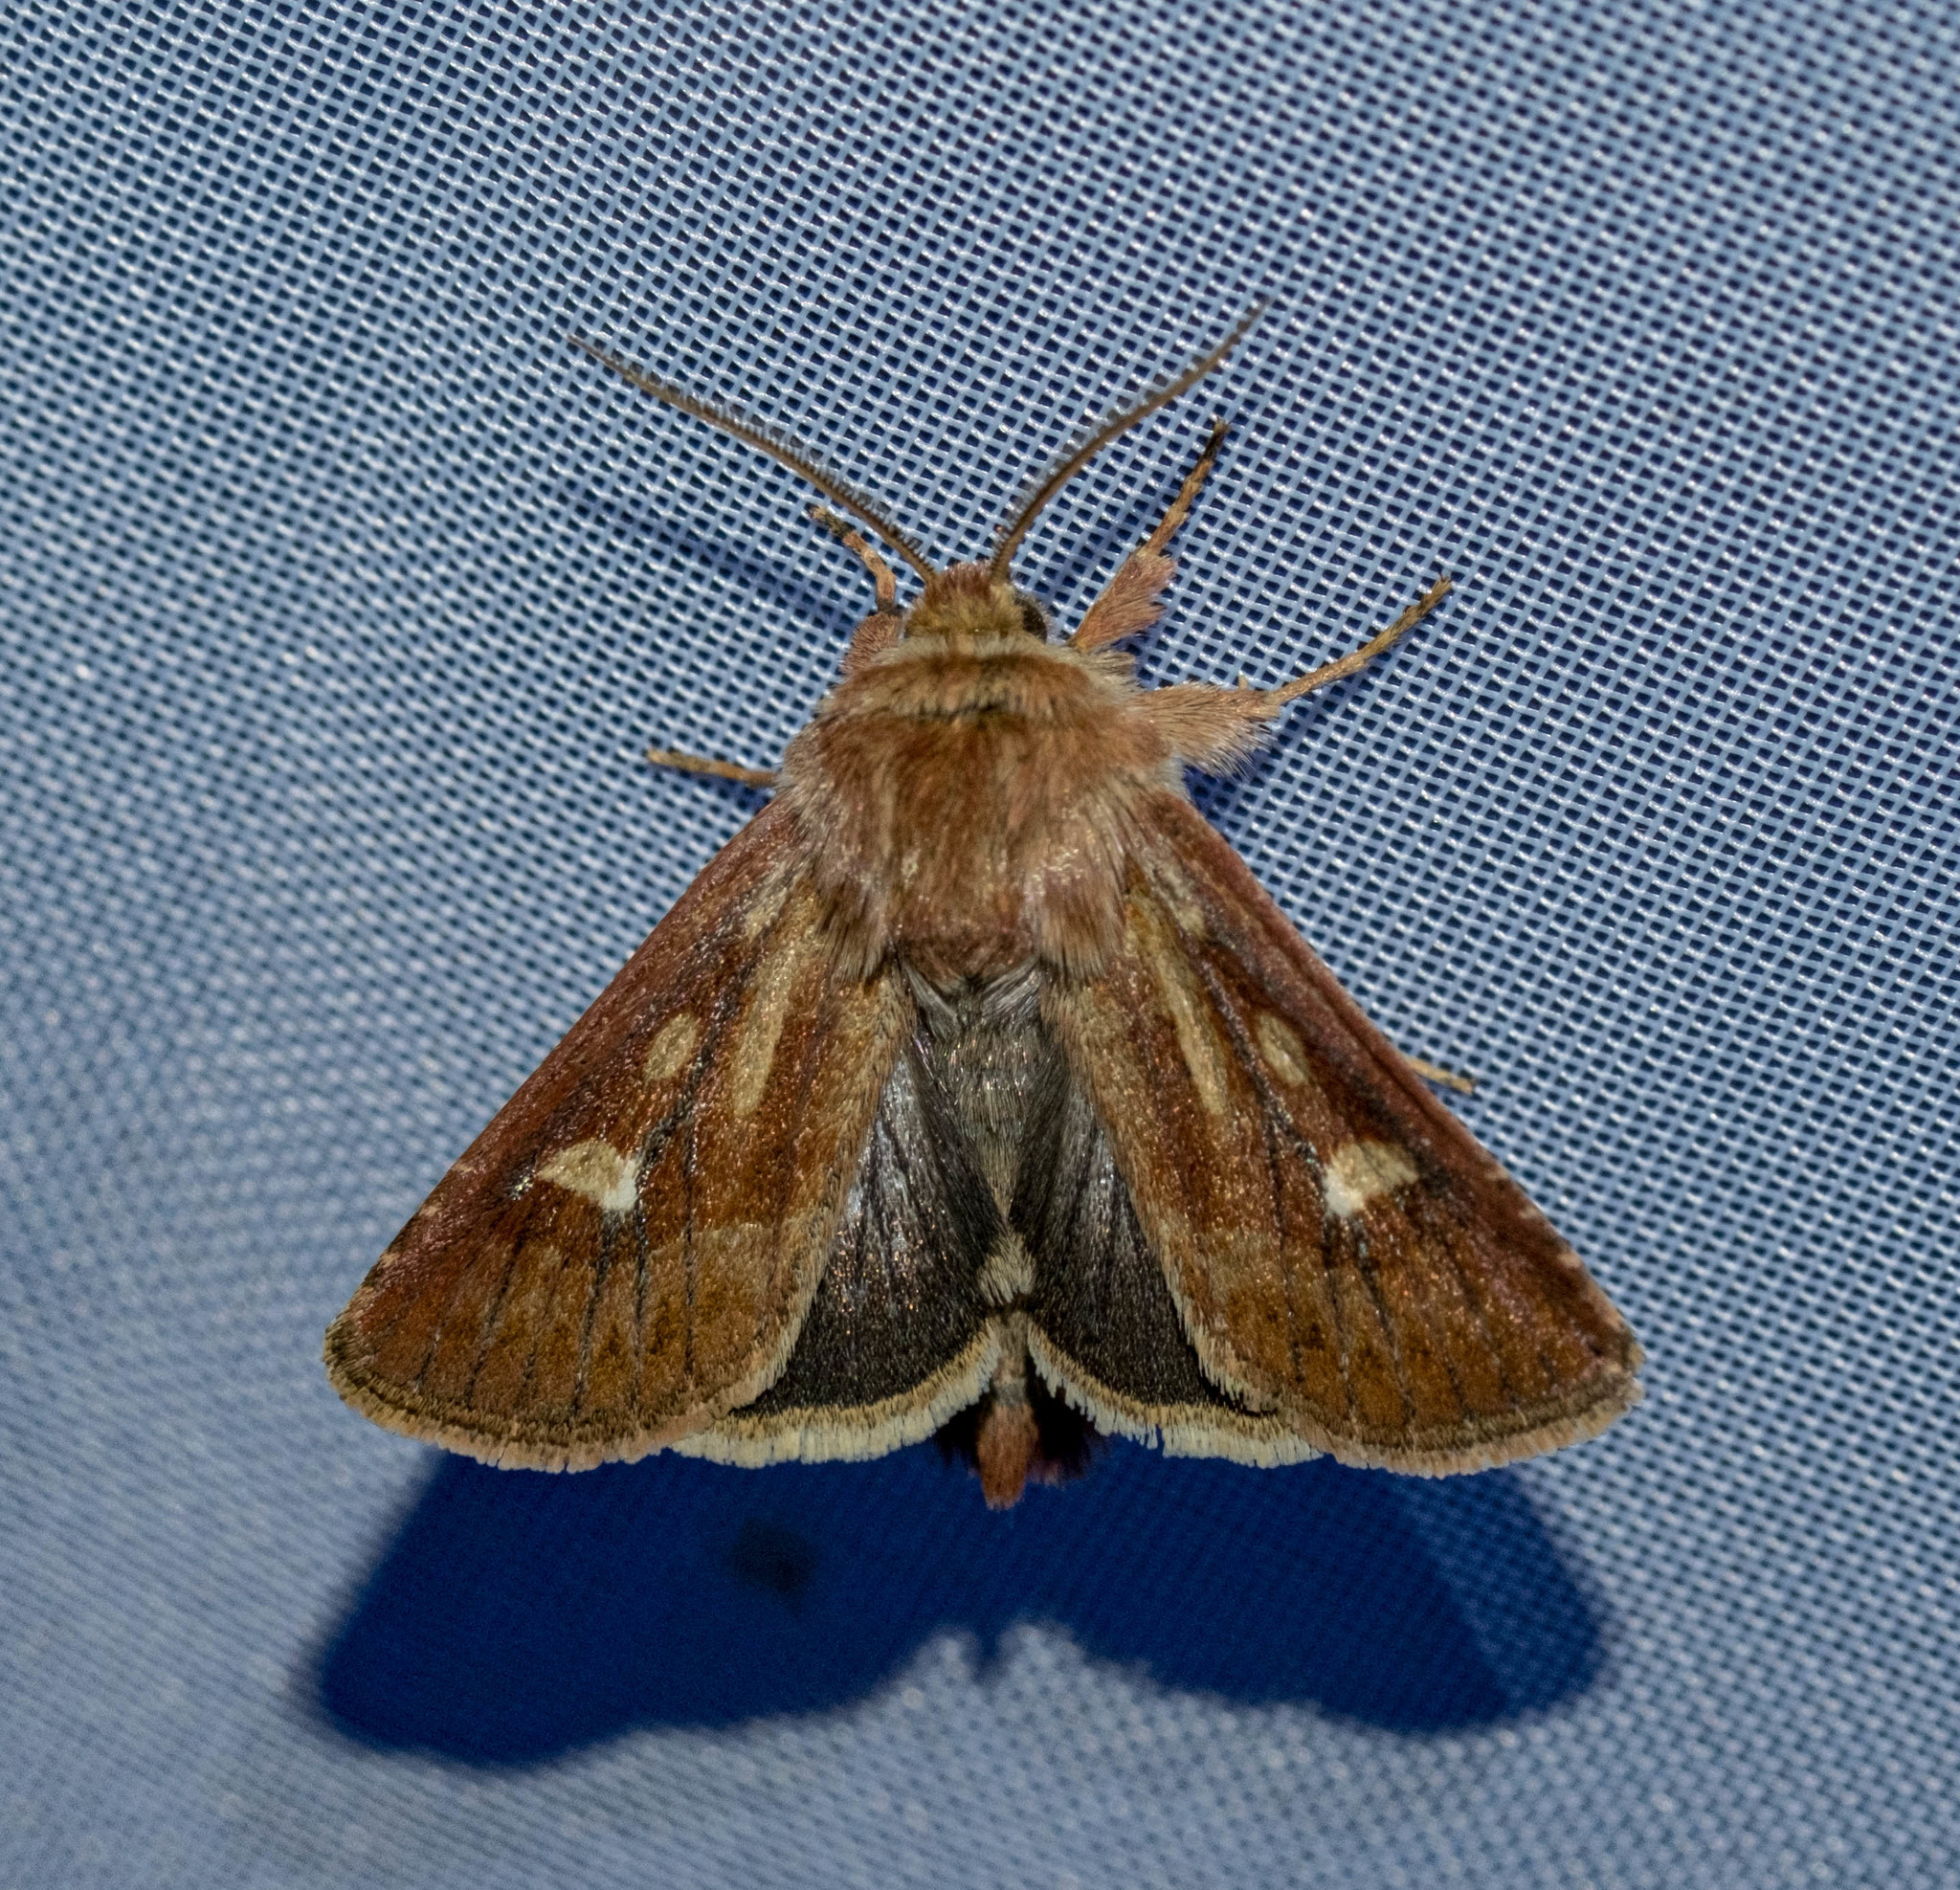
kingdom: Animalia
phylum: Arthropoda
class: Insecta
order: Lepidoptera
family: Noctuidae
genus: Cerapteryx
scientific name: Cerapteryx graminis
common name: Antler moth
